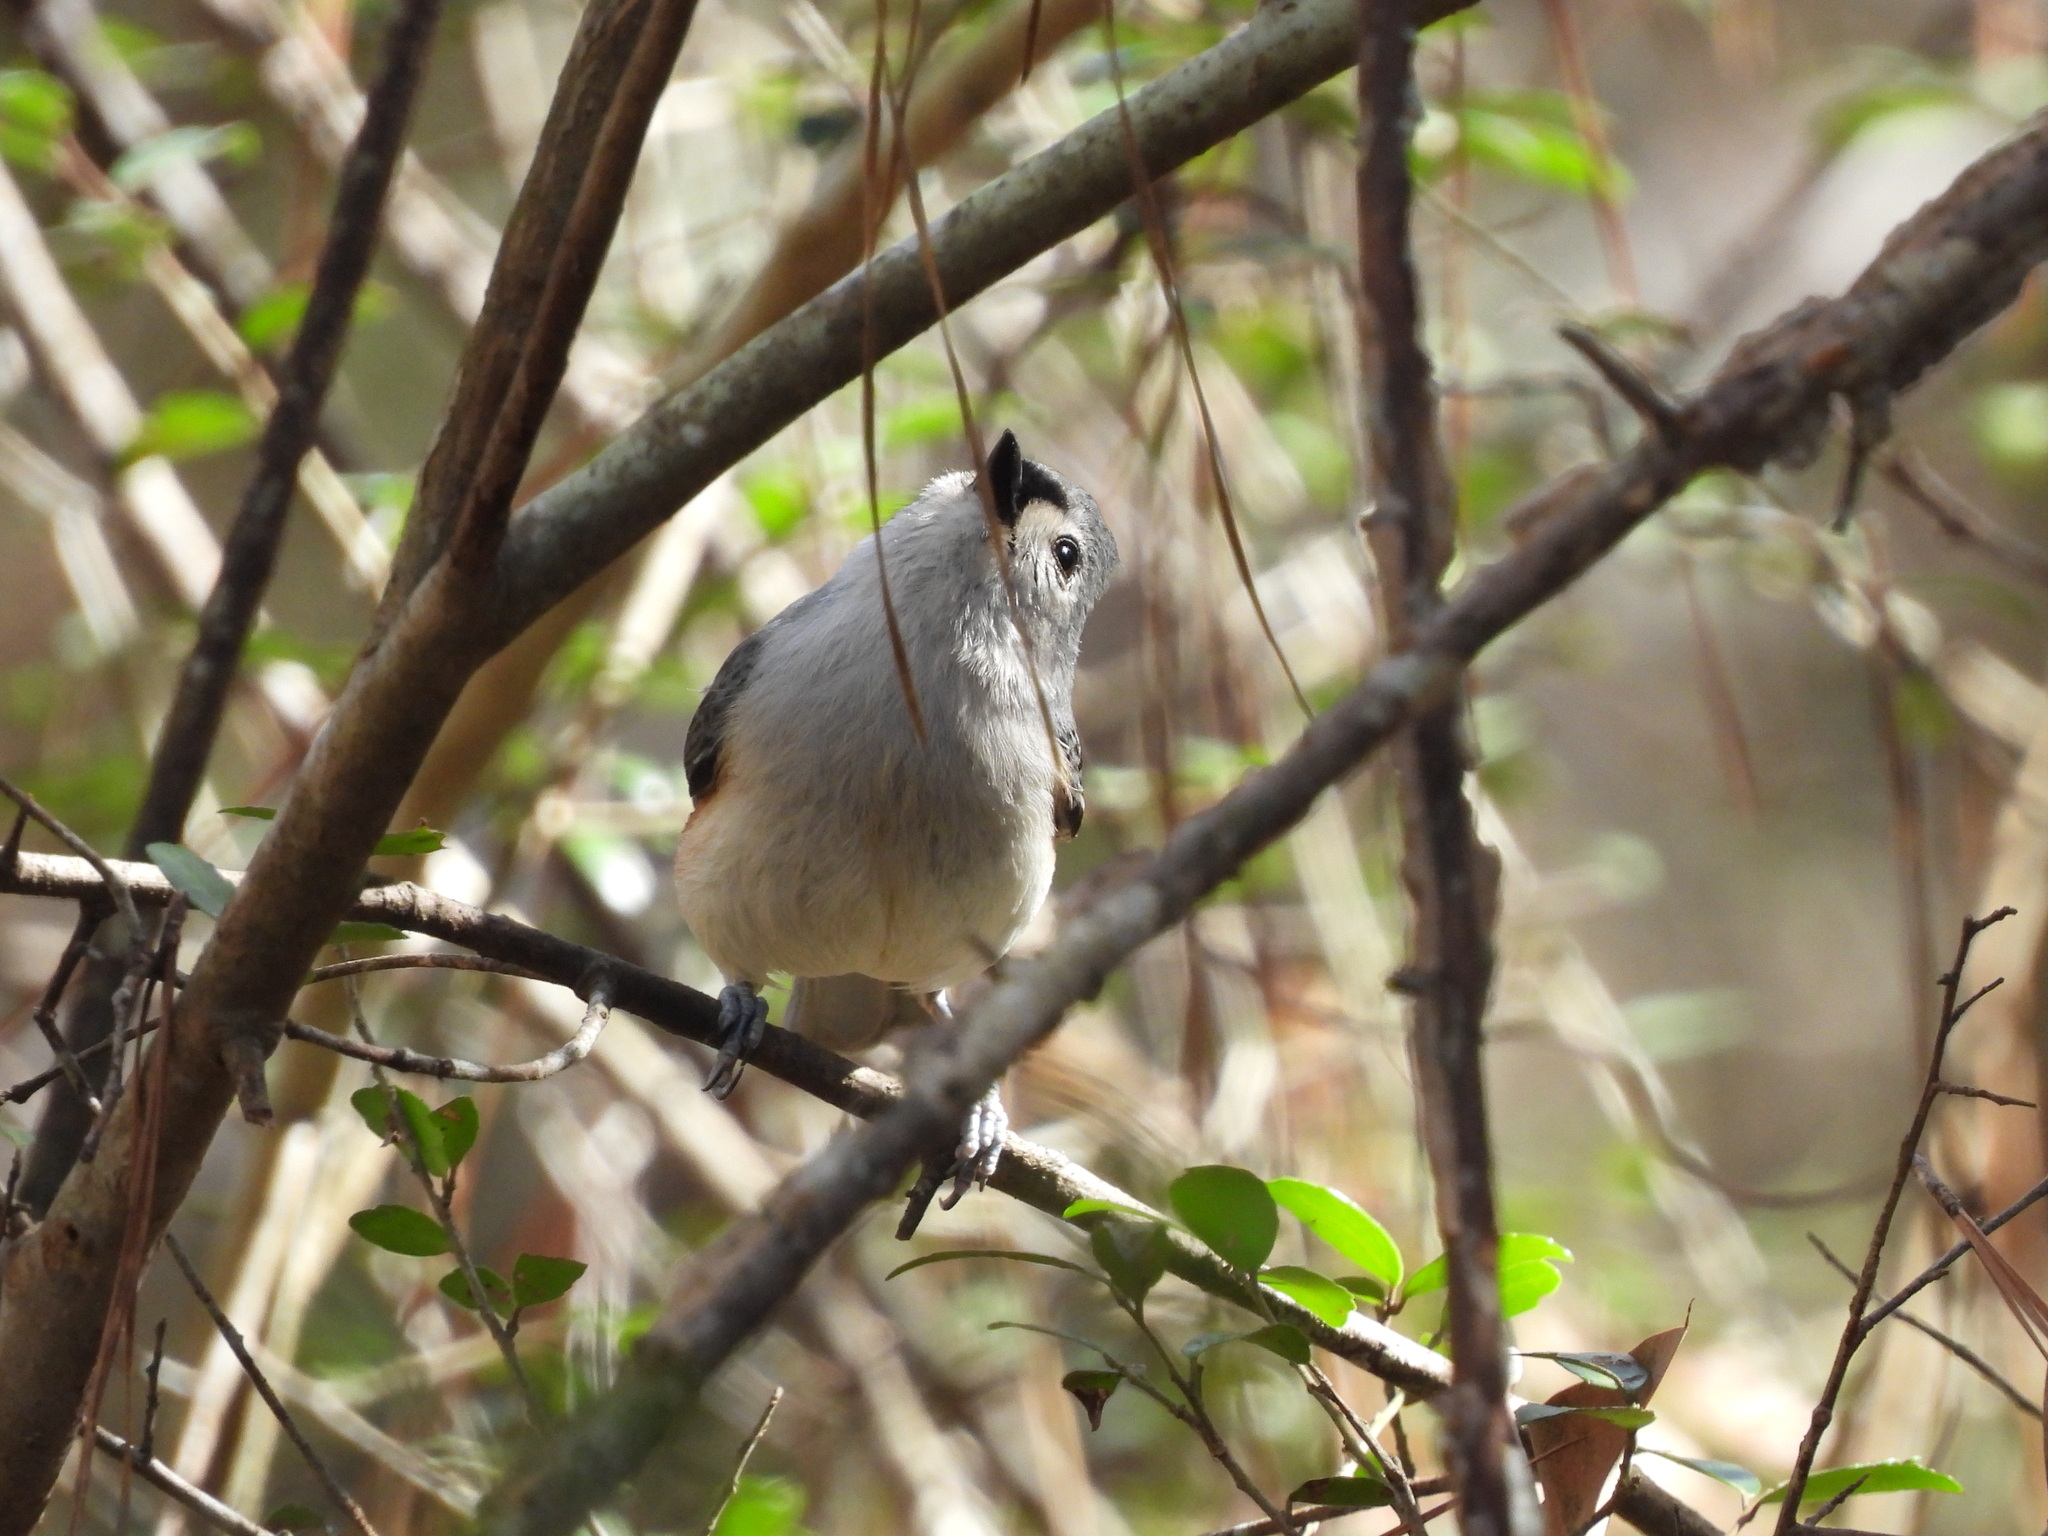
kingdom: Animalia
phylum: Chordata
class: Aves
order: Passeriformes
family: Paridae
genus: Baeolophus
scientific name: Baeolophus bicolor
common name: Tufted titmouse
